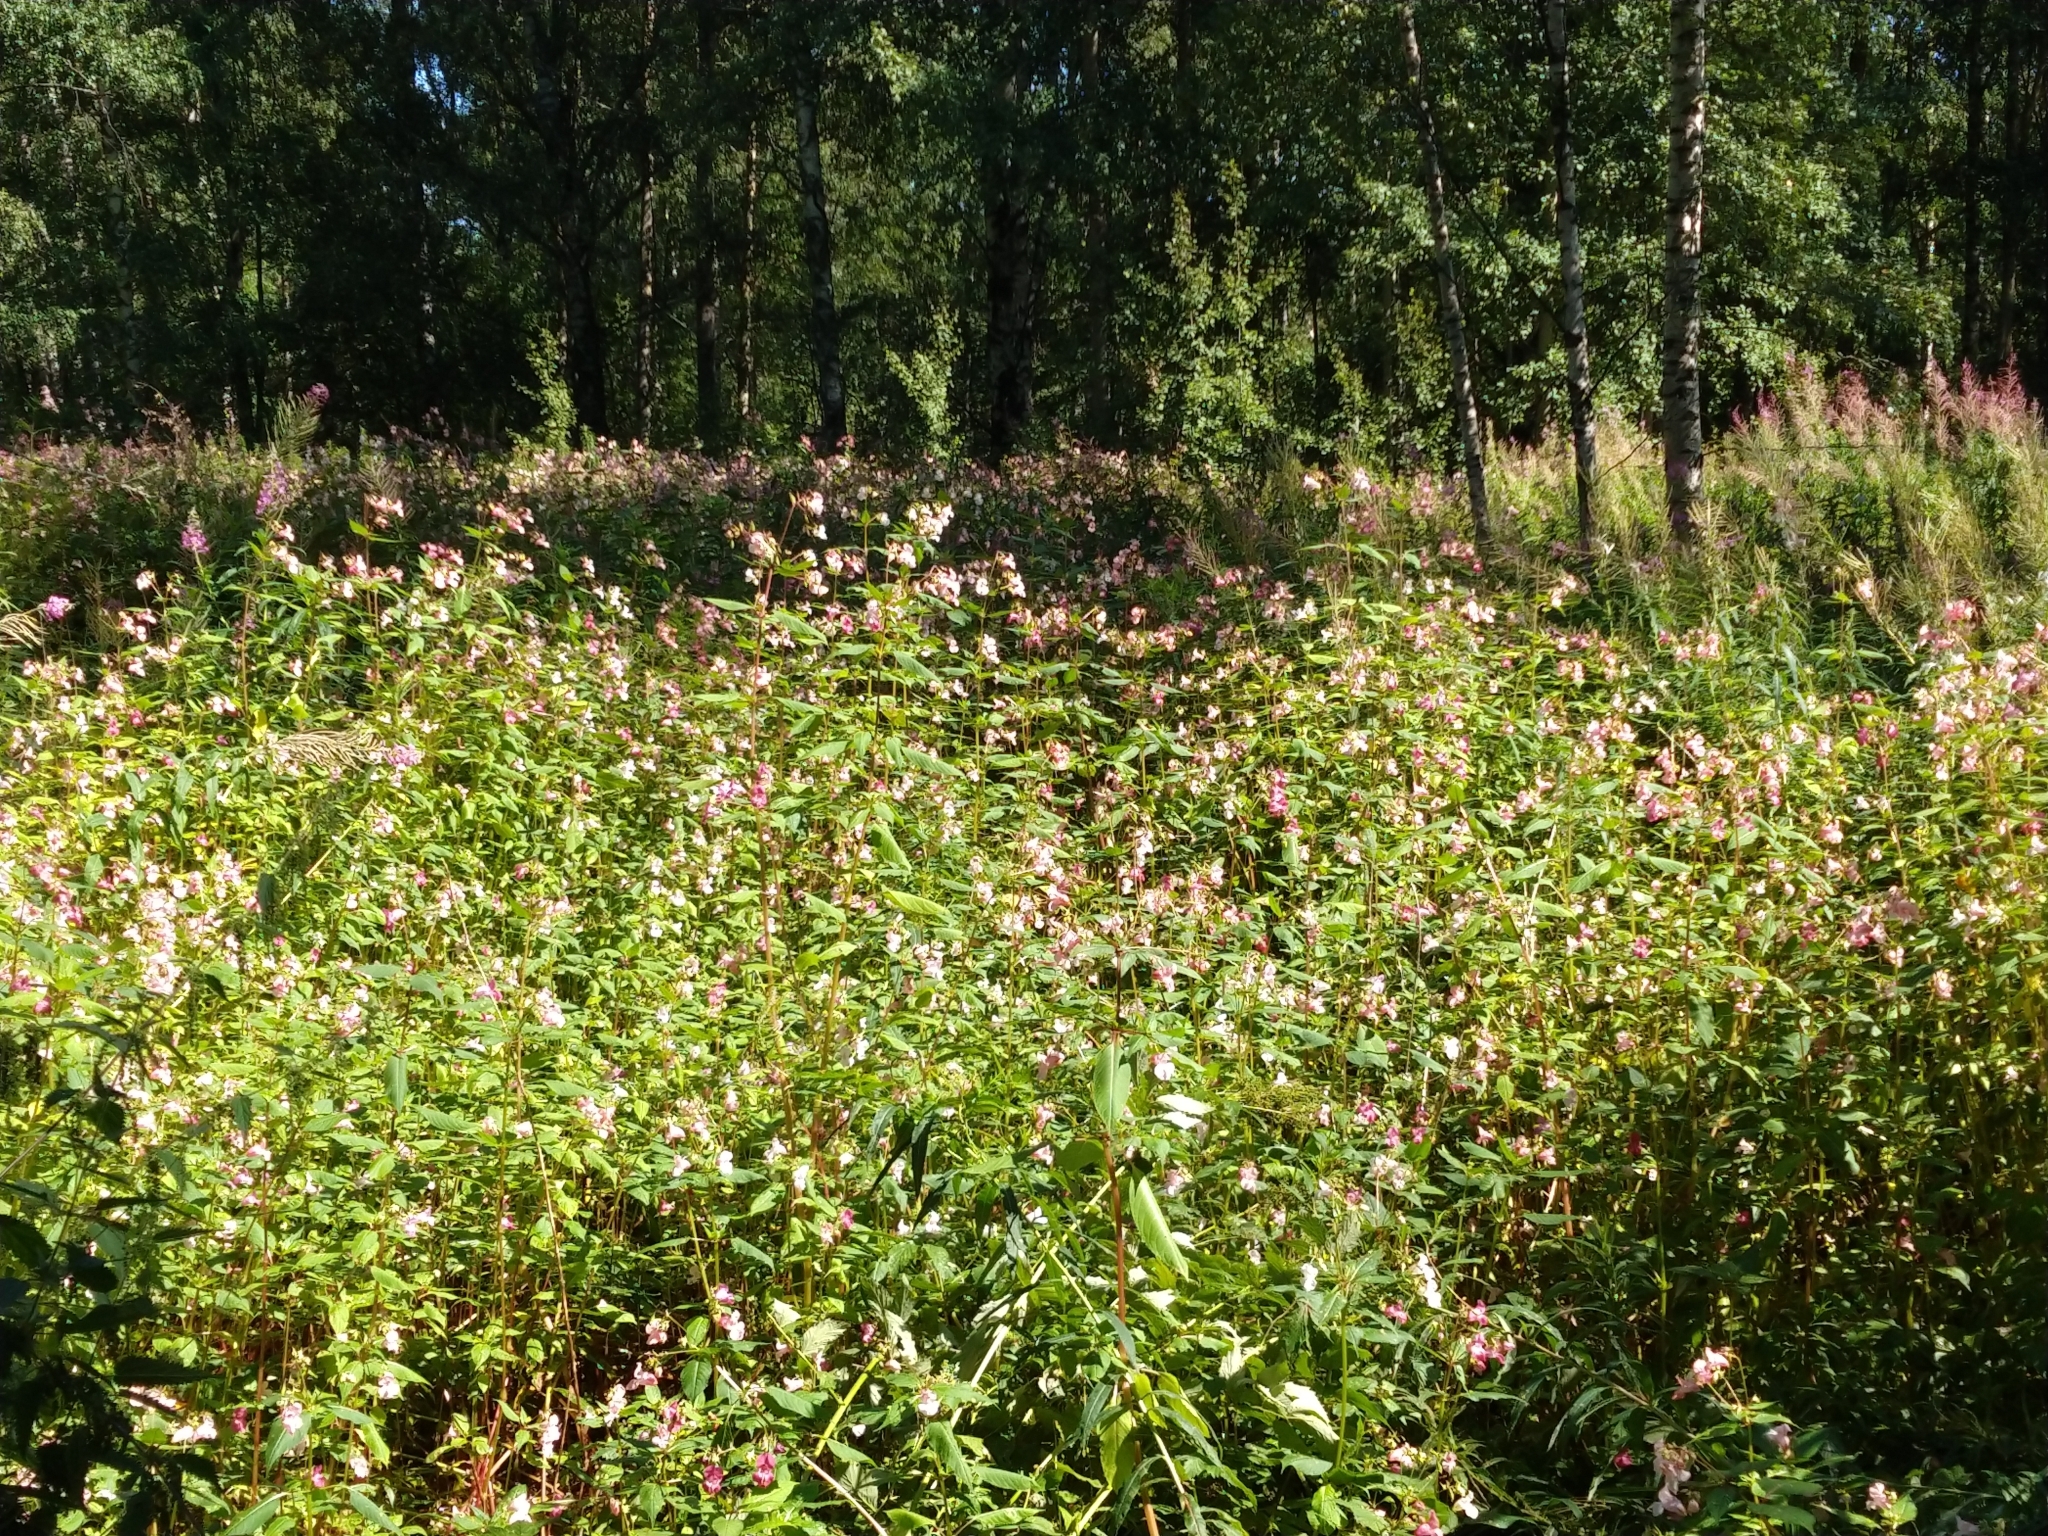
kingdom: Plantae
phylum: Tracheophyta
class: Magnoliopsida
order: Ericales
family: Balsaminaceae
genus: Impatiens
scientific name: Impatiens glandulifera
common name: Himalayan balsam
